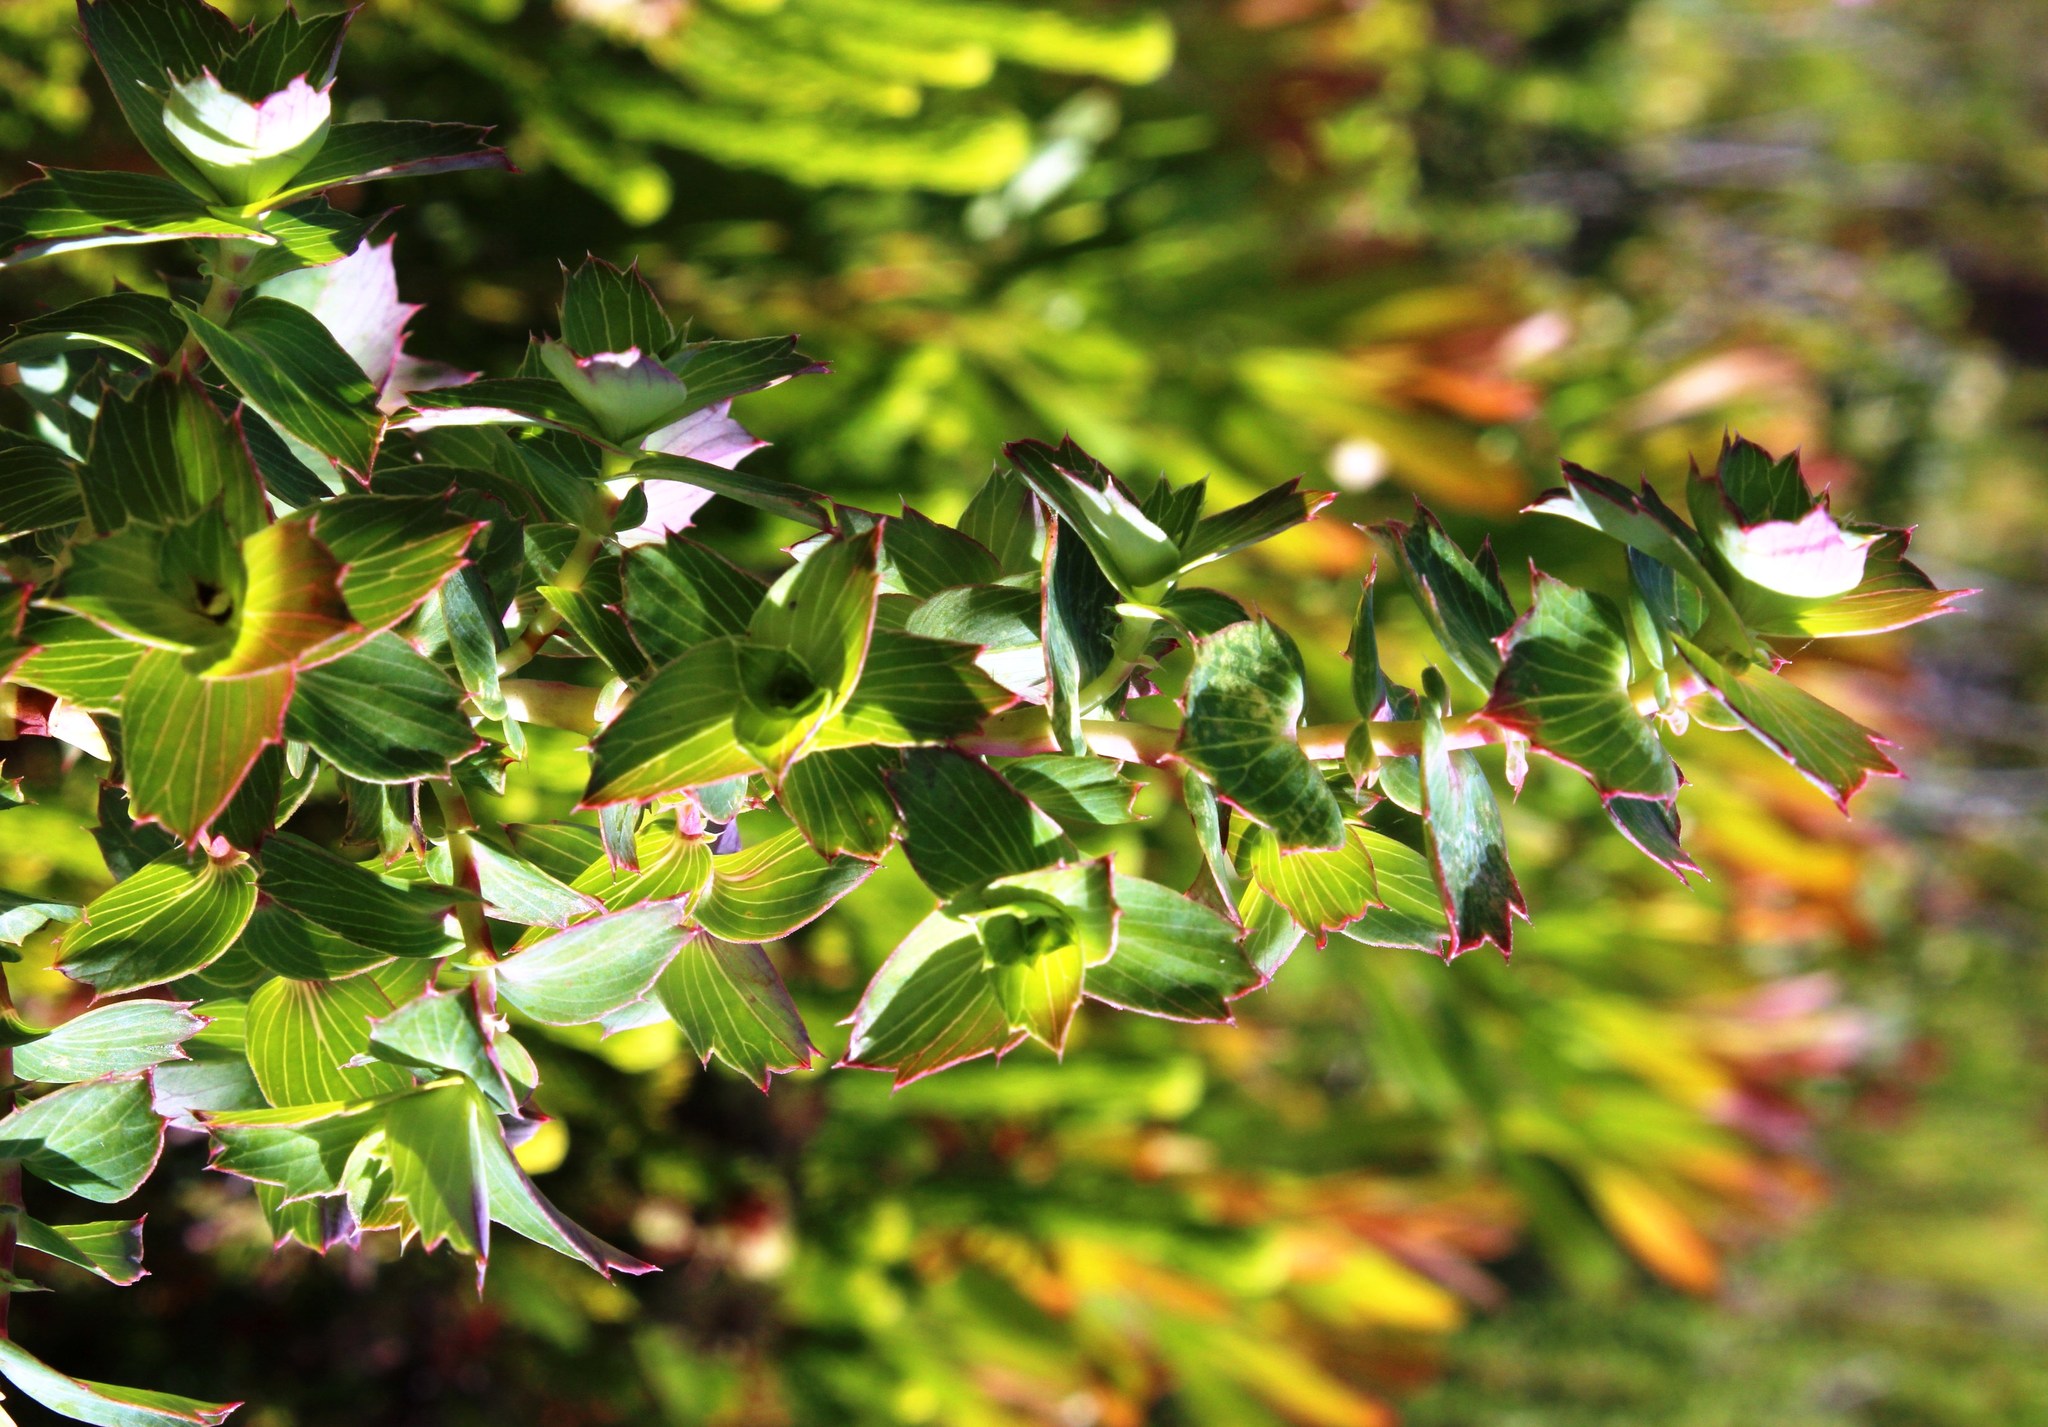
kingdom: Plantae
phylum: Tracheophyta
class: Magnoliopsida
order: Rosales
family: Rosaceae
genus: Cliffortia
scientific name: Cliffortia ilicifolia
